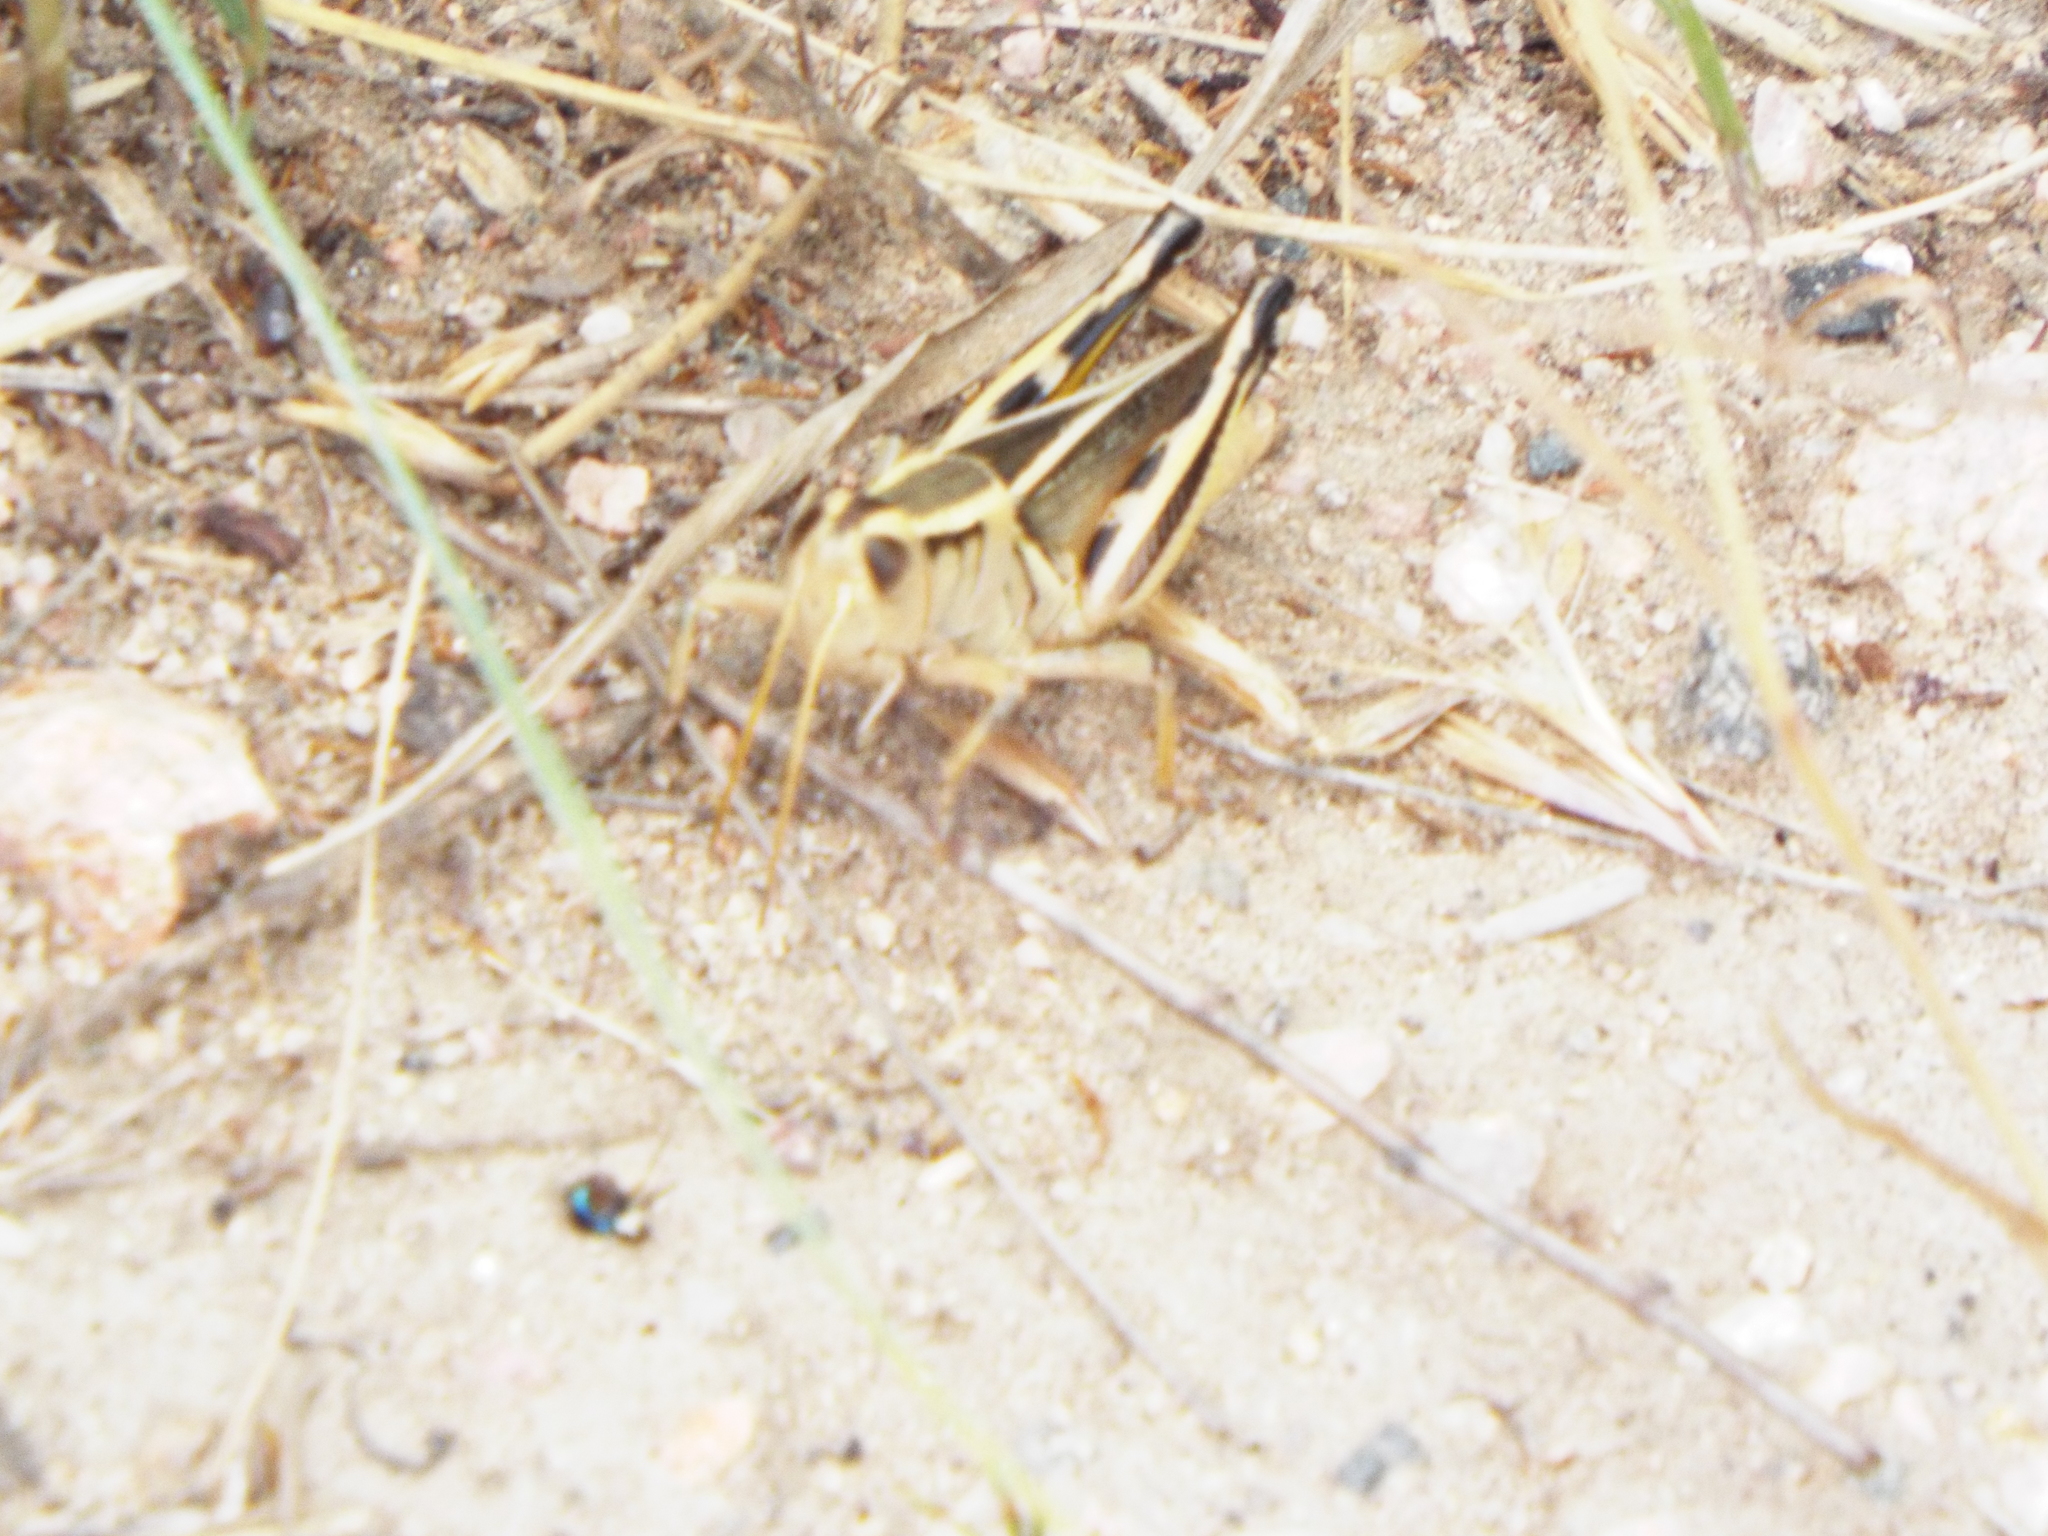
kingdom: Animalia
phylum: Arthropoda
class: Insecta
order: Orthoptera
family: Acrididae
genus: Melanoplus
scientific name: Melanoplus bivittatus
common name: Two-striped grasshopper
